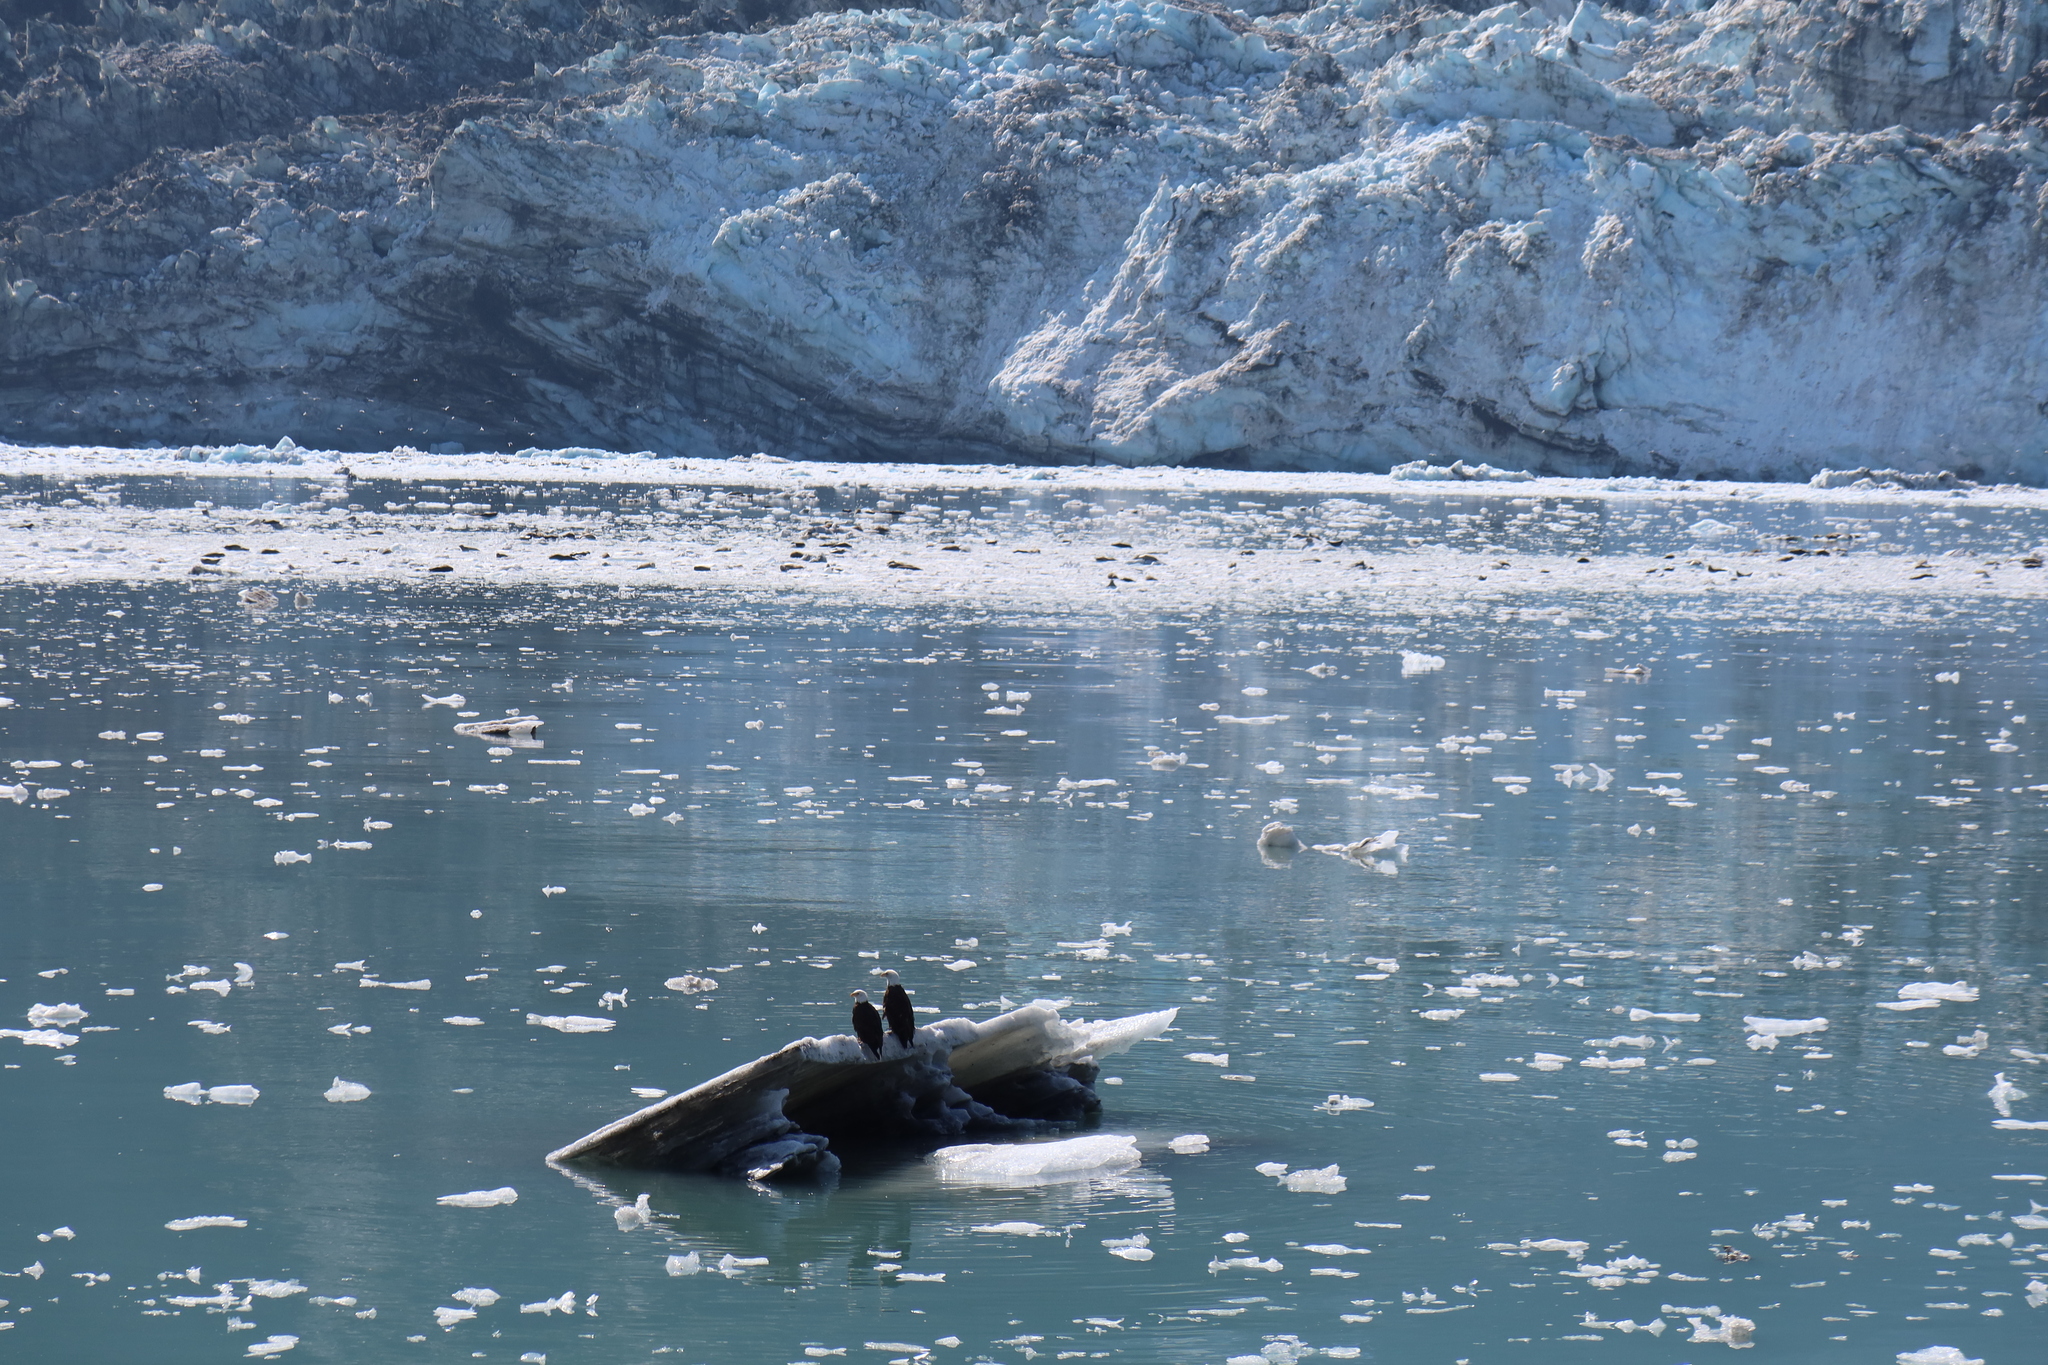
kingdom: Animalia
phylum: Chordata
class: Aves
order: Accipitriformes
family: Accipitridae
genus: Haliaeetus
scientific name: Haliaeetus leucocephalus
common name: Bald eagle
